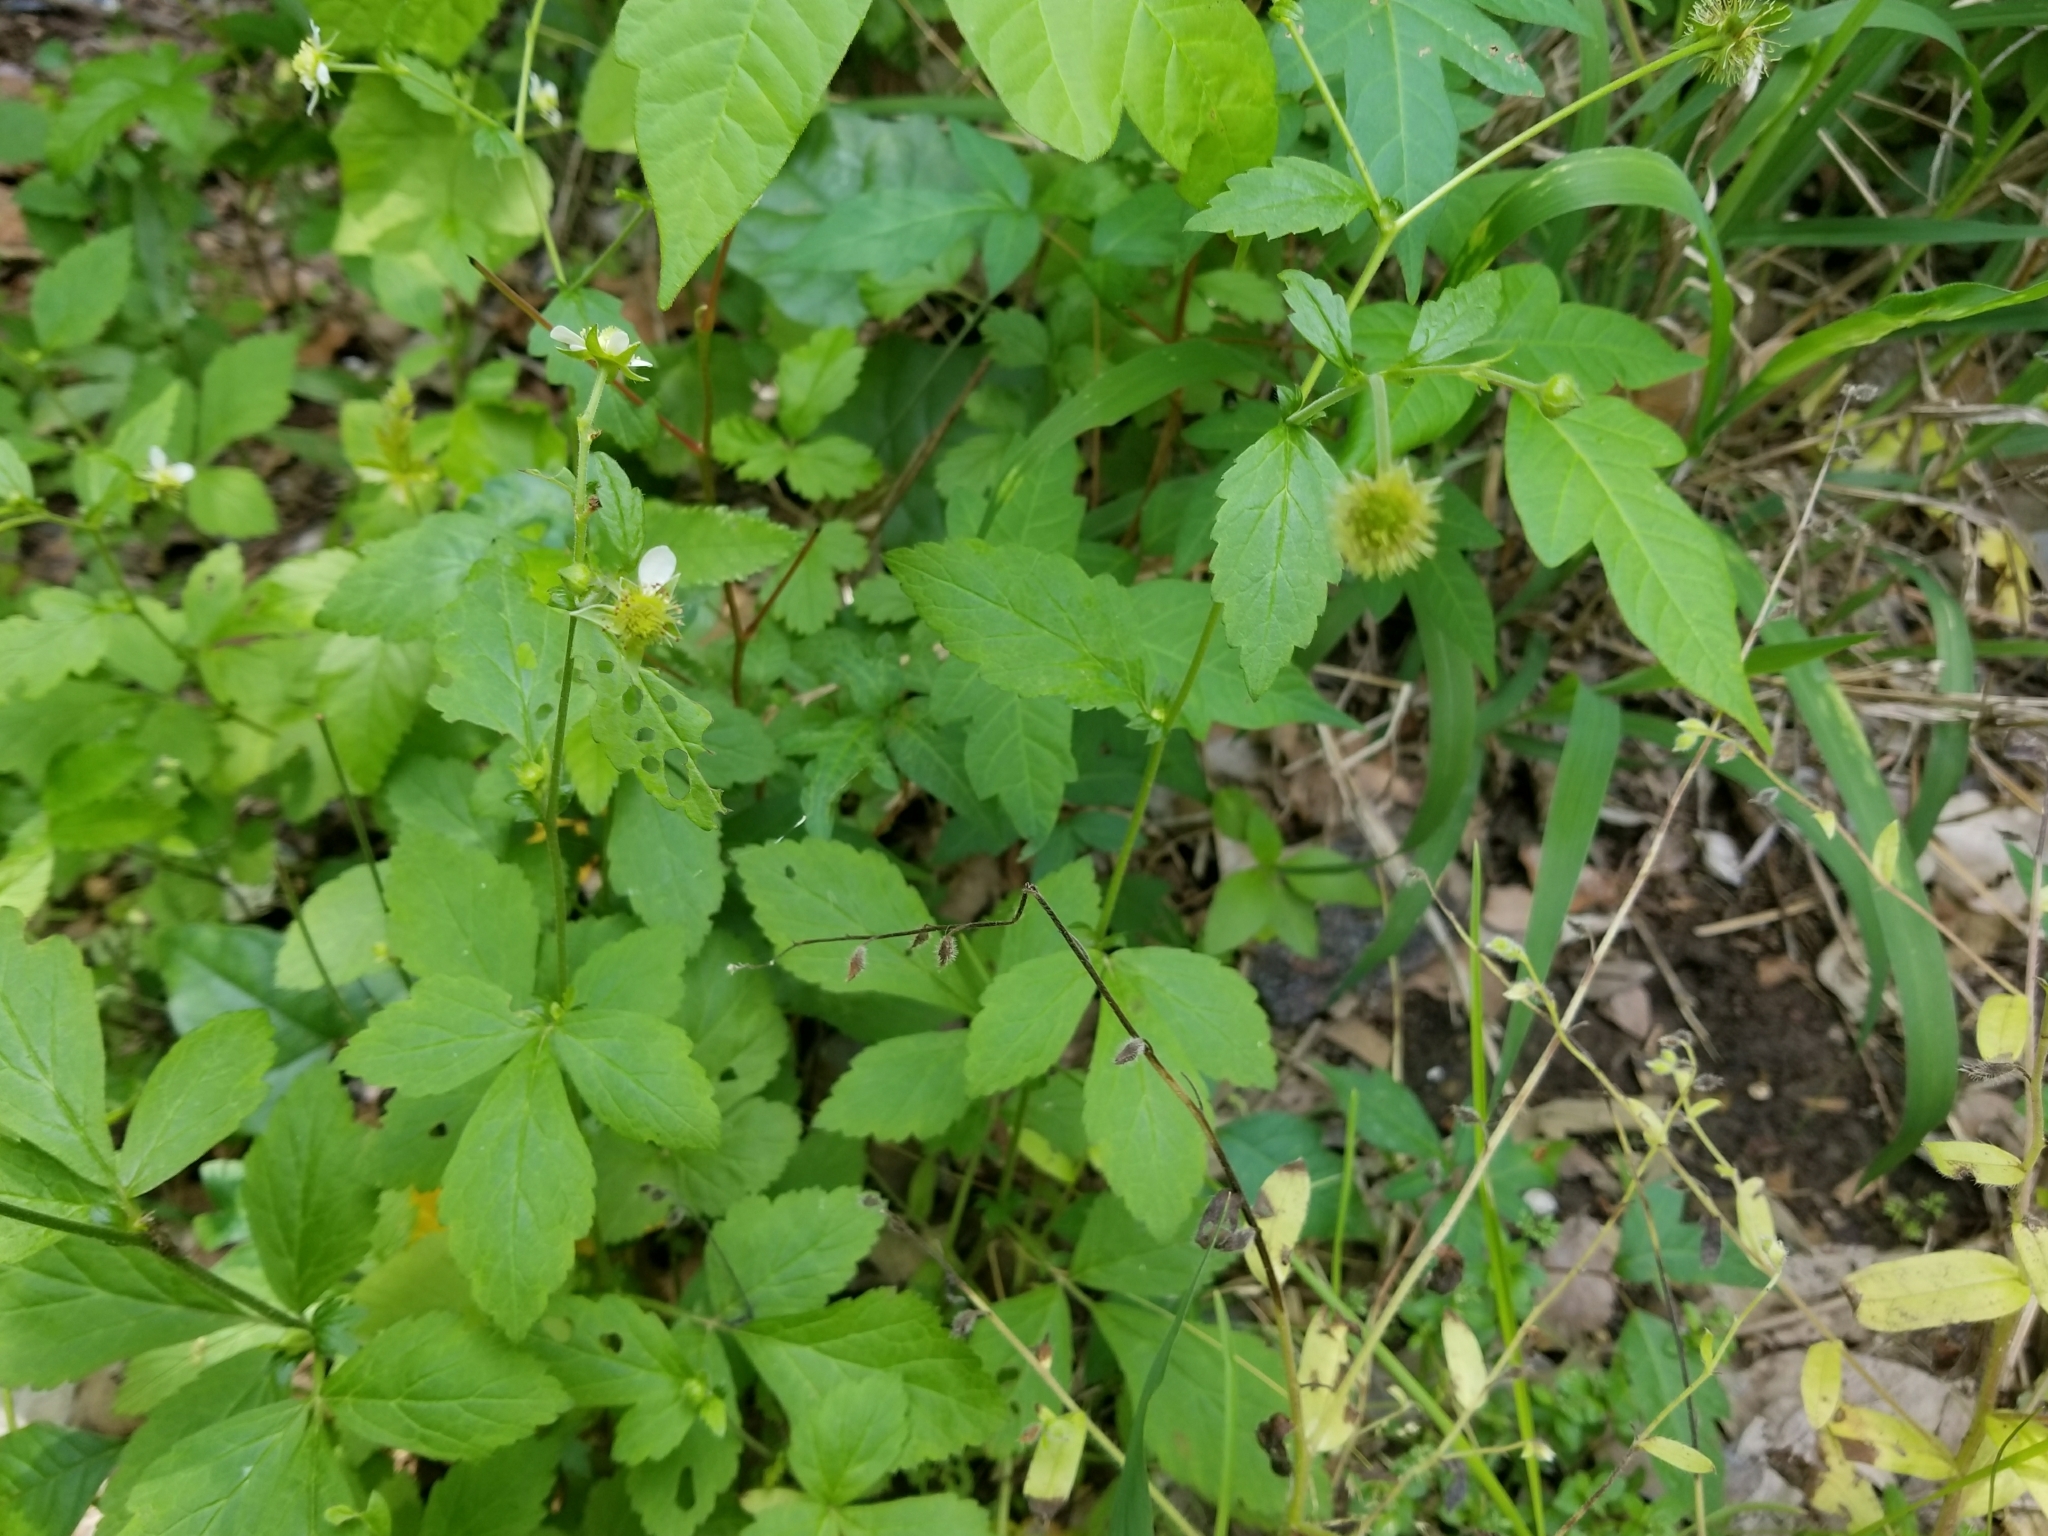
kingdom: Plantae
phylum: Tracheophyta
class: Magnoliopsida
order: Rosales
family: Rosaceae
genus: Geum
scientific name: Geum canadense
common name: White avens
